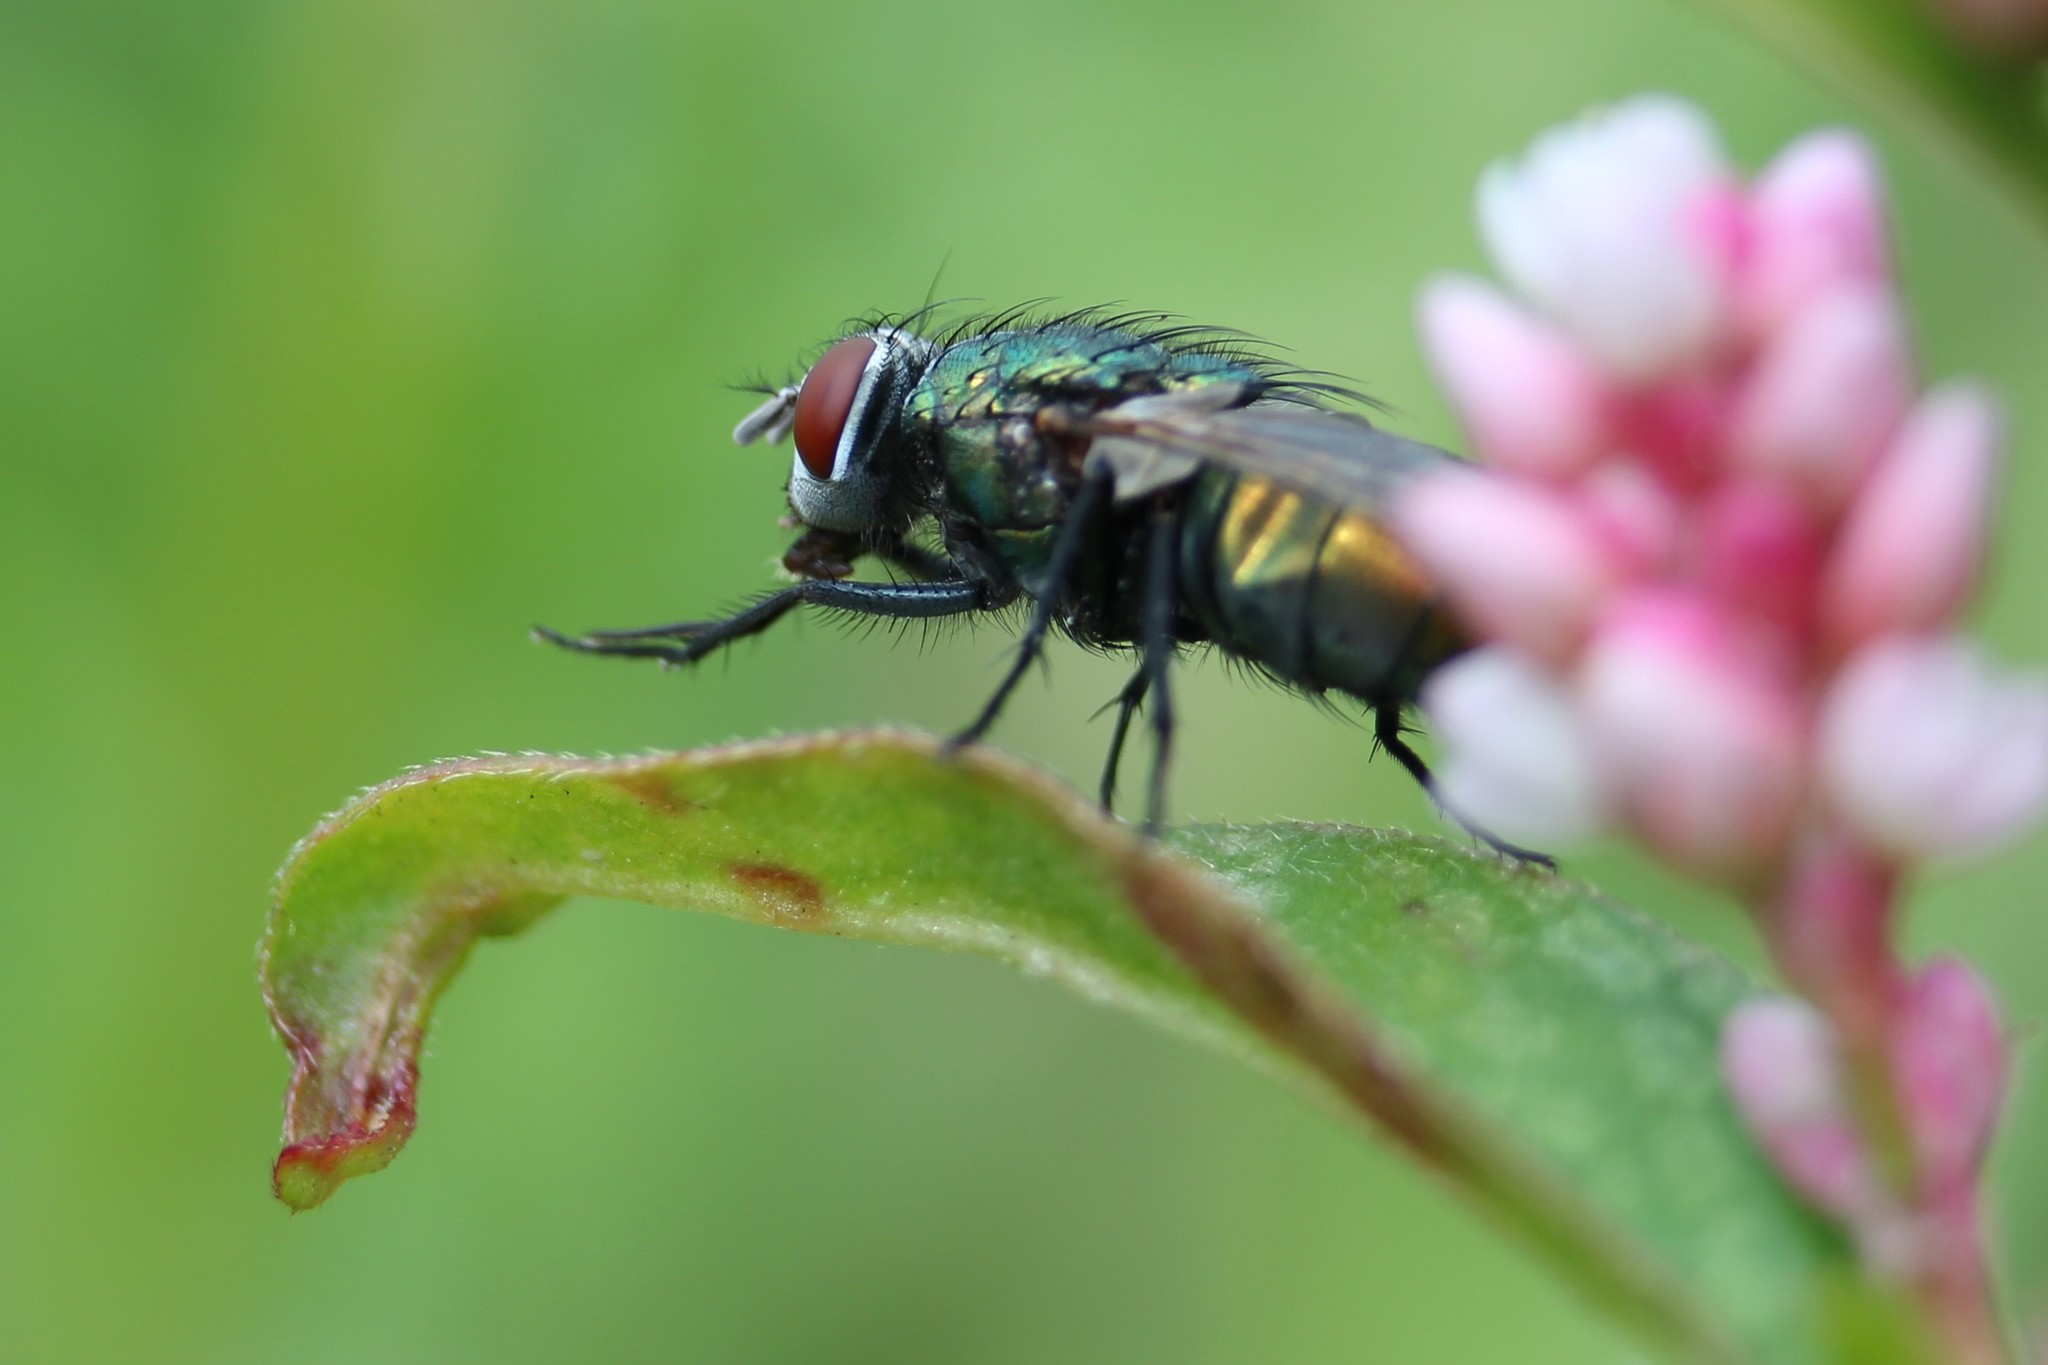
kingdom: Animalia
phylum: Arthropoda
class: Insecta
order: Diptera
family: Calliphoridae
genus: Lucilia
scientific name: Lucilia sericata
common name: Blow fly
